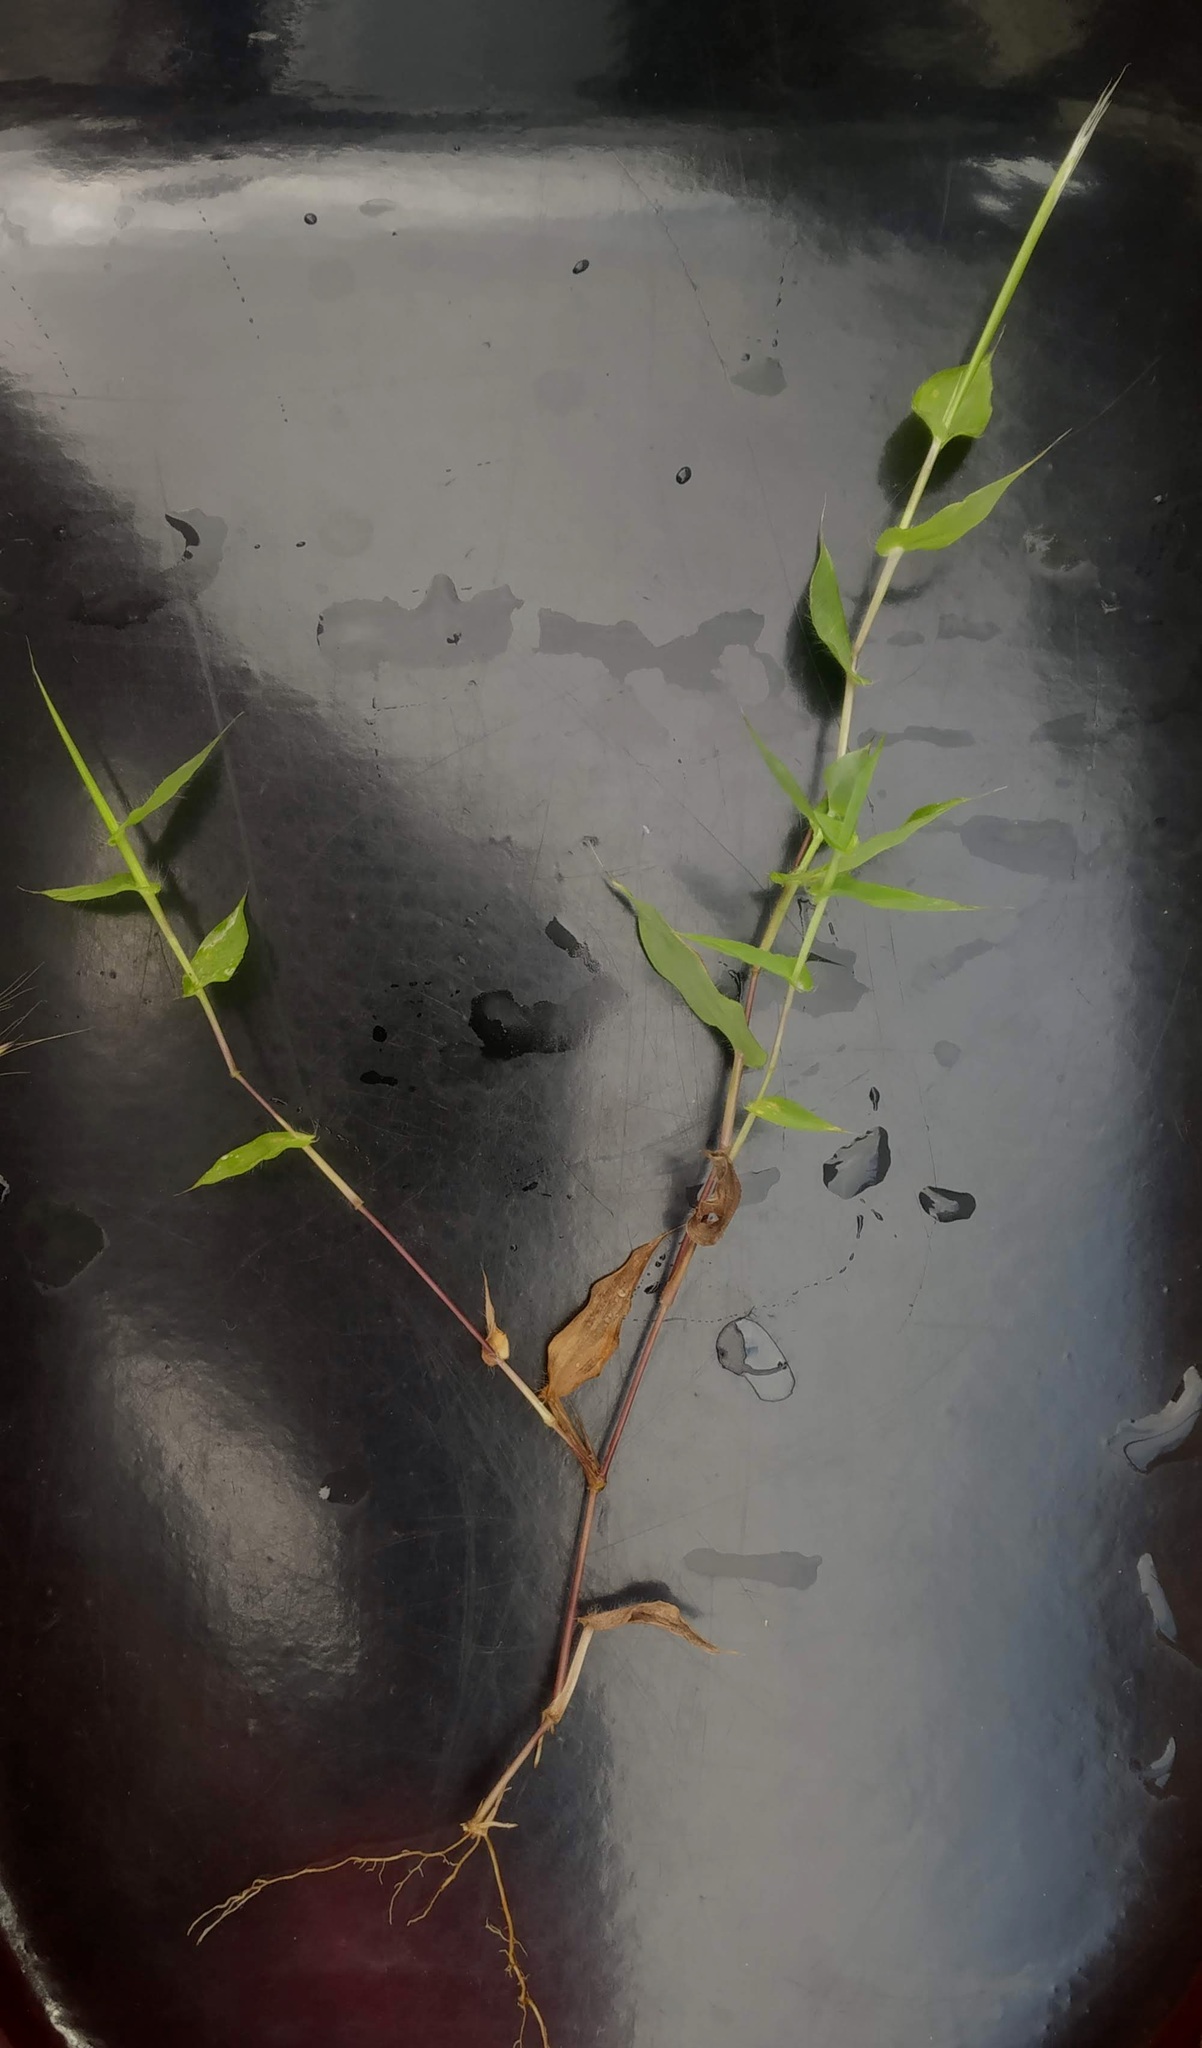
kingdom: Plantae
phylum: Tracheophyta
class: Liliopsida
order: Poales
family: Poaceae
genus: Arthraxon
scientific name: Arthraxon lancifolius
